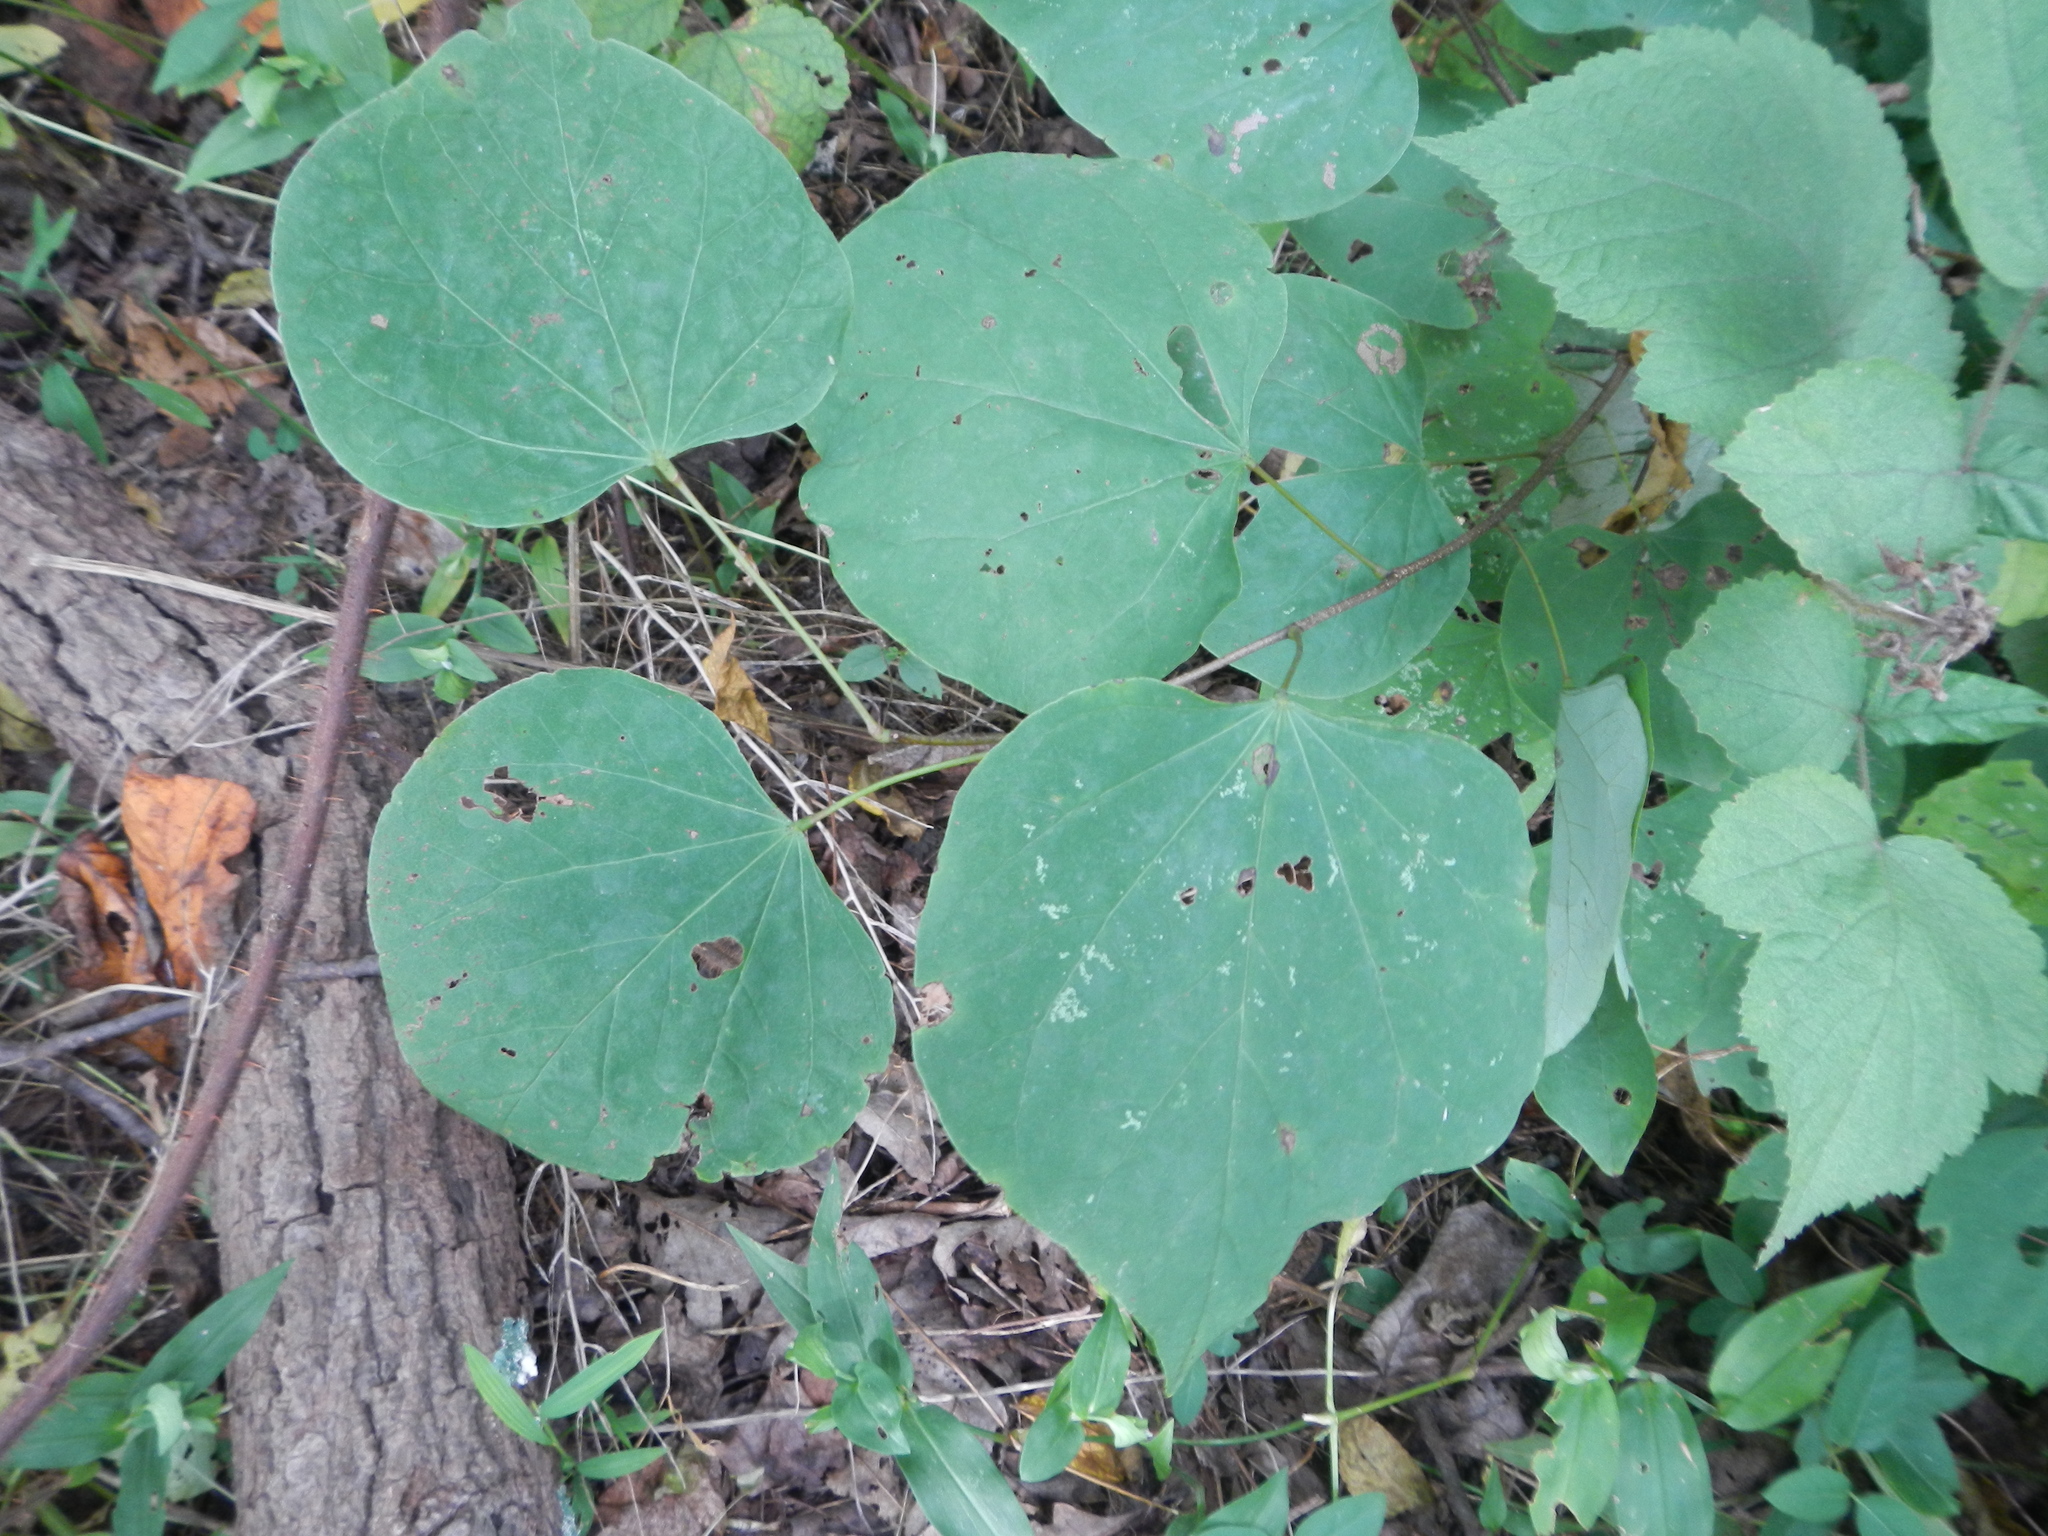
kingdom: Plantae
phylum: Tracheophyta
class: Magnoliopsida
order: Fabales
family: Fabaceae
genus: Cercis
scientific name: Cercis canadensis
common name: Eastern redbud
